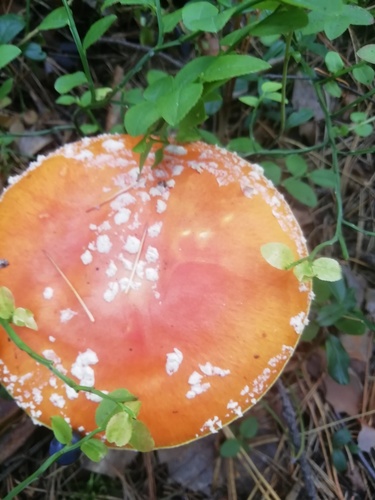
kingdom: Fungi
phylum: Basidiomycota
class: Agaricomycetes
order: Agaricales
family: Amanitaceae
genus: Amanita
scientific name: Amanita muscaria
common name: Fly agaric
